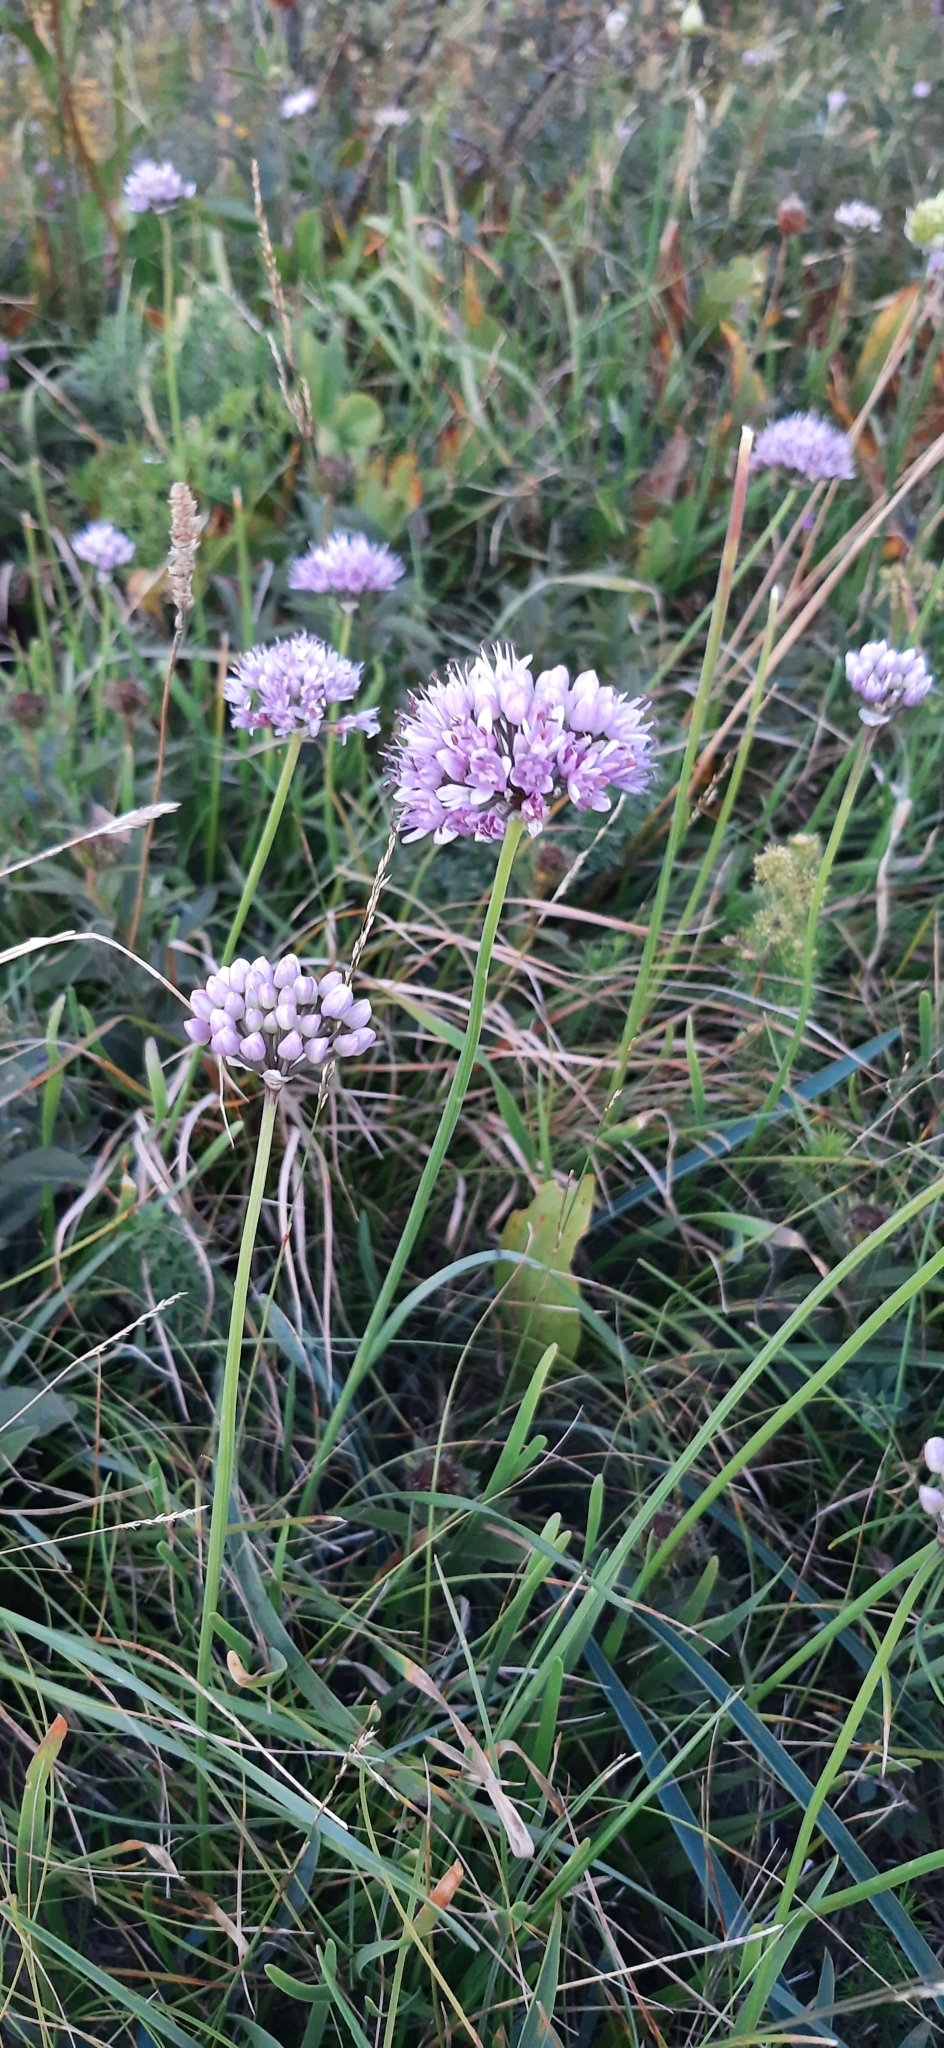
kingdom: Plantae
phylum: Tracheophyta
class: Liliopsida
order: Asparagales
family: Amaryllidaceae
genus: Allium
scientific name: Allium lusitanicum
